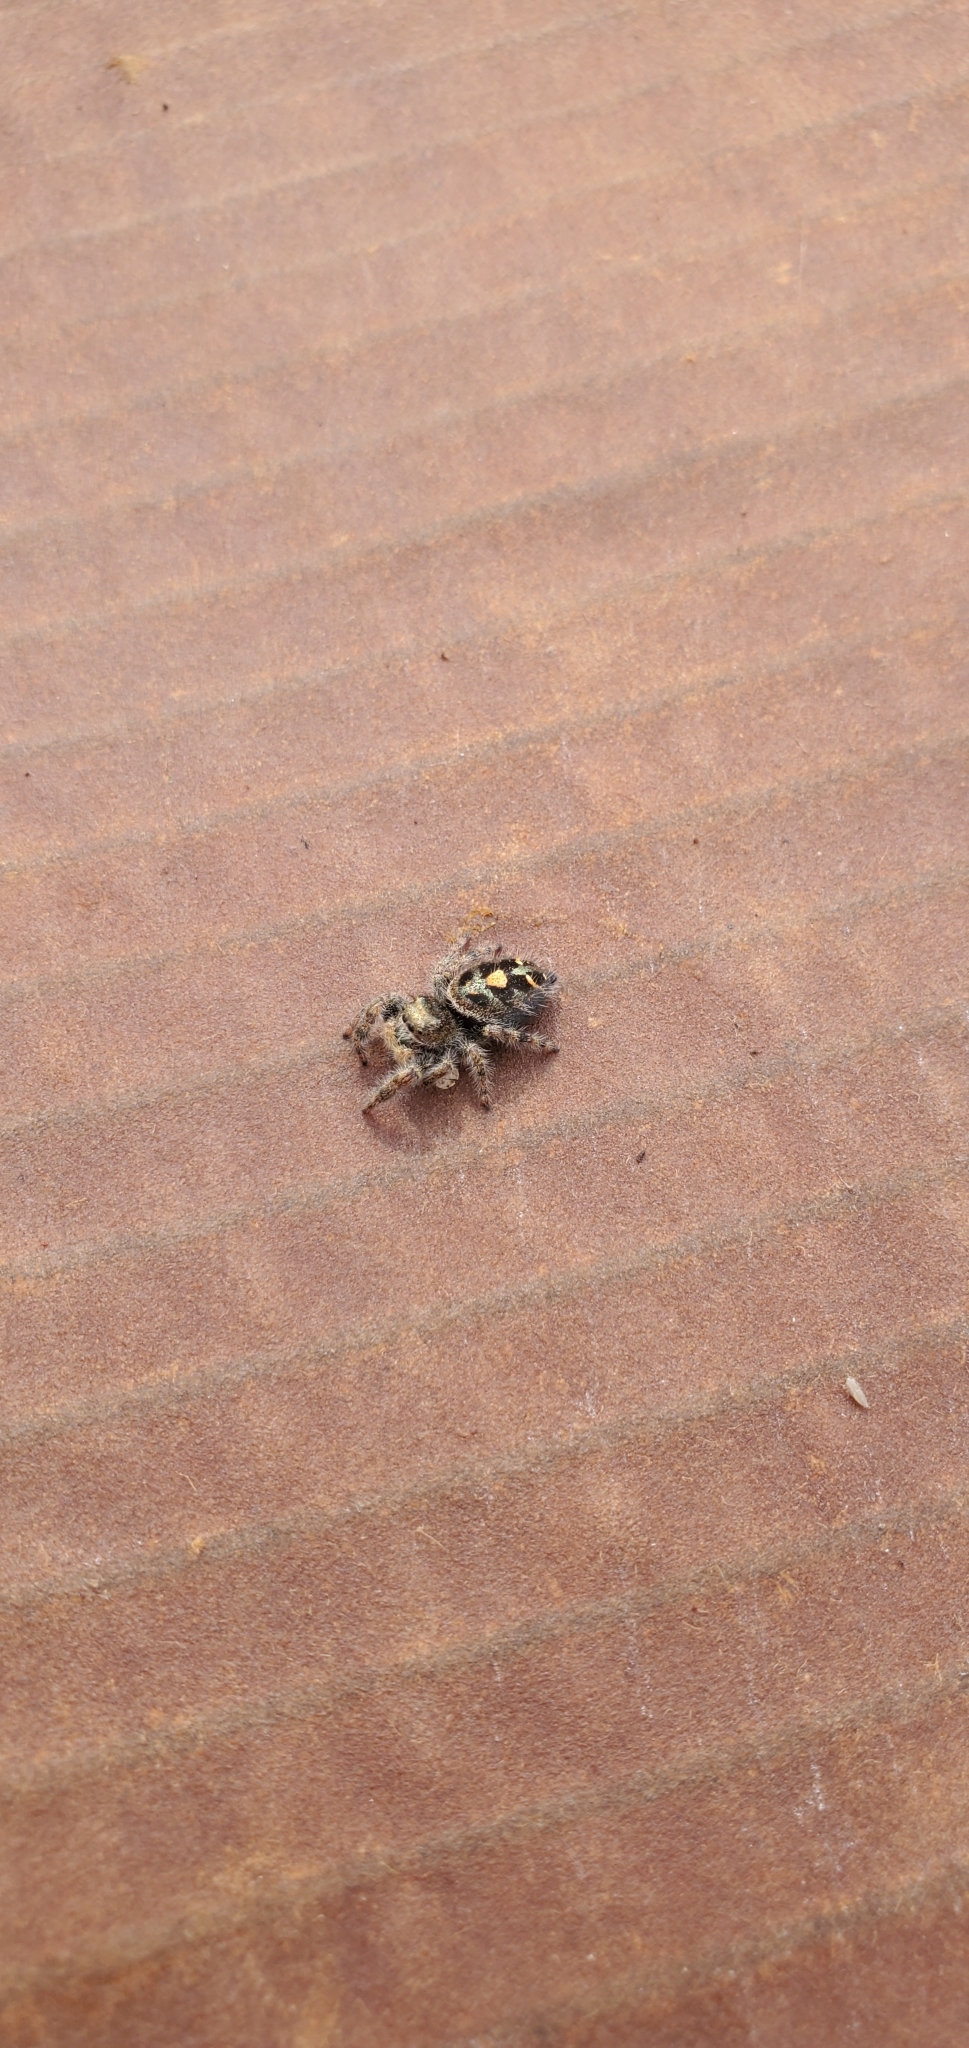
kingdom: Animalia
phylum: Arthropoda
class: Arachnida
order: Araneae
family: Salticidae
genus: Phidippus
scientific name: Phidippus audax
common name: Bold jumper
